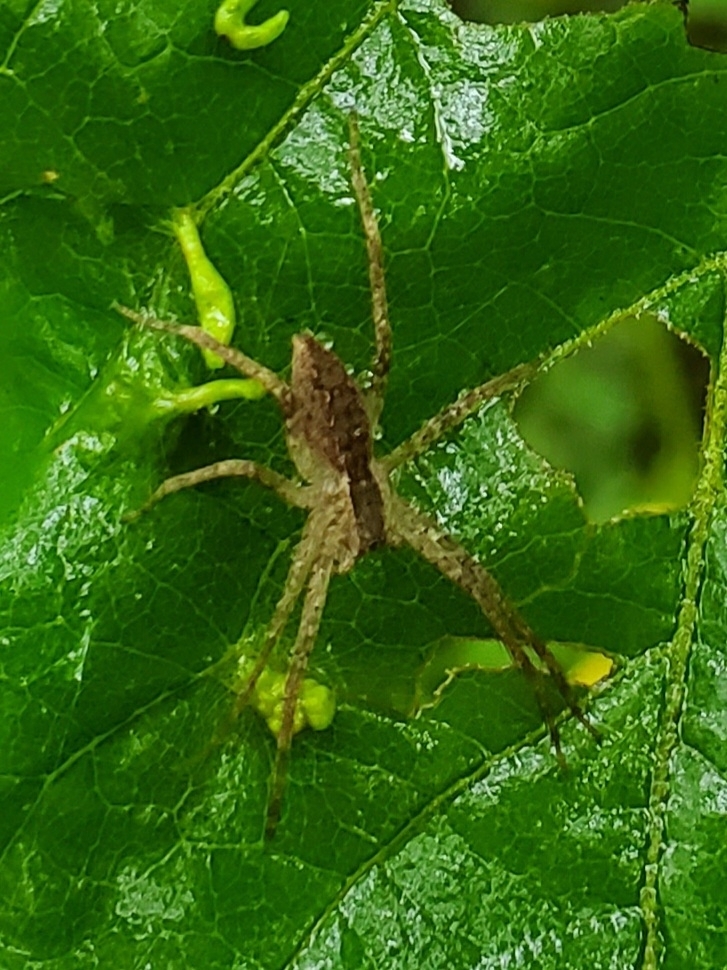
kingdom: Animalia
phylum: Arthropoda
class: Arachnida
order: Araneae
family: Pisauridae
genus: Pisaurina
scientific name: Pisaurina mira
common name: American nursery web spider
